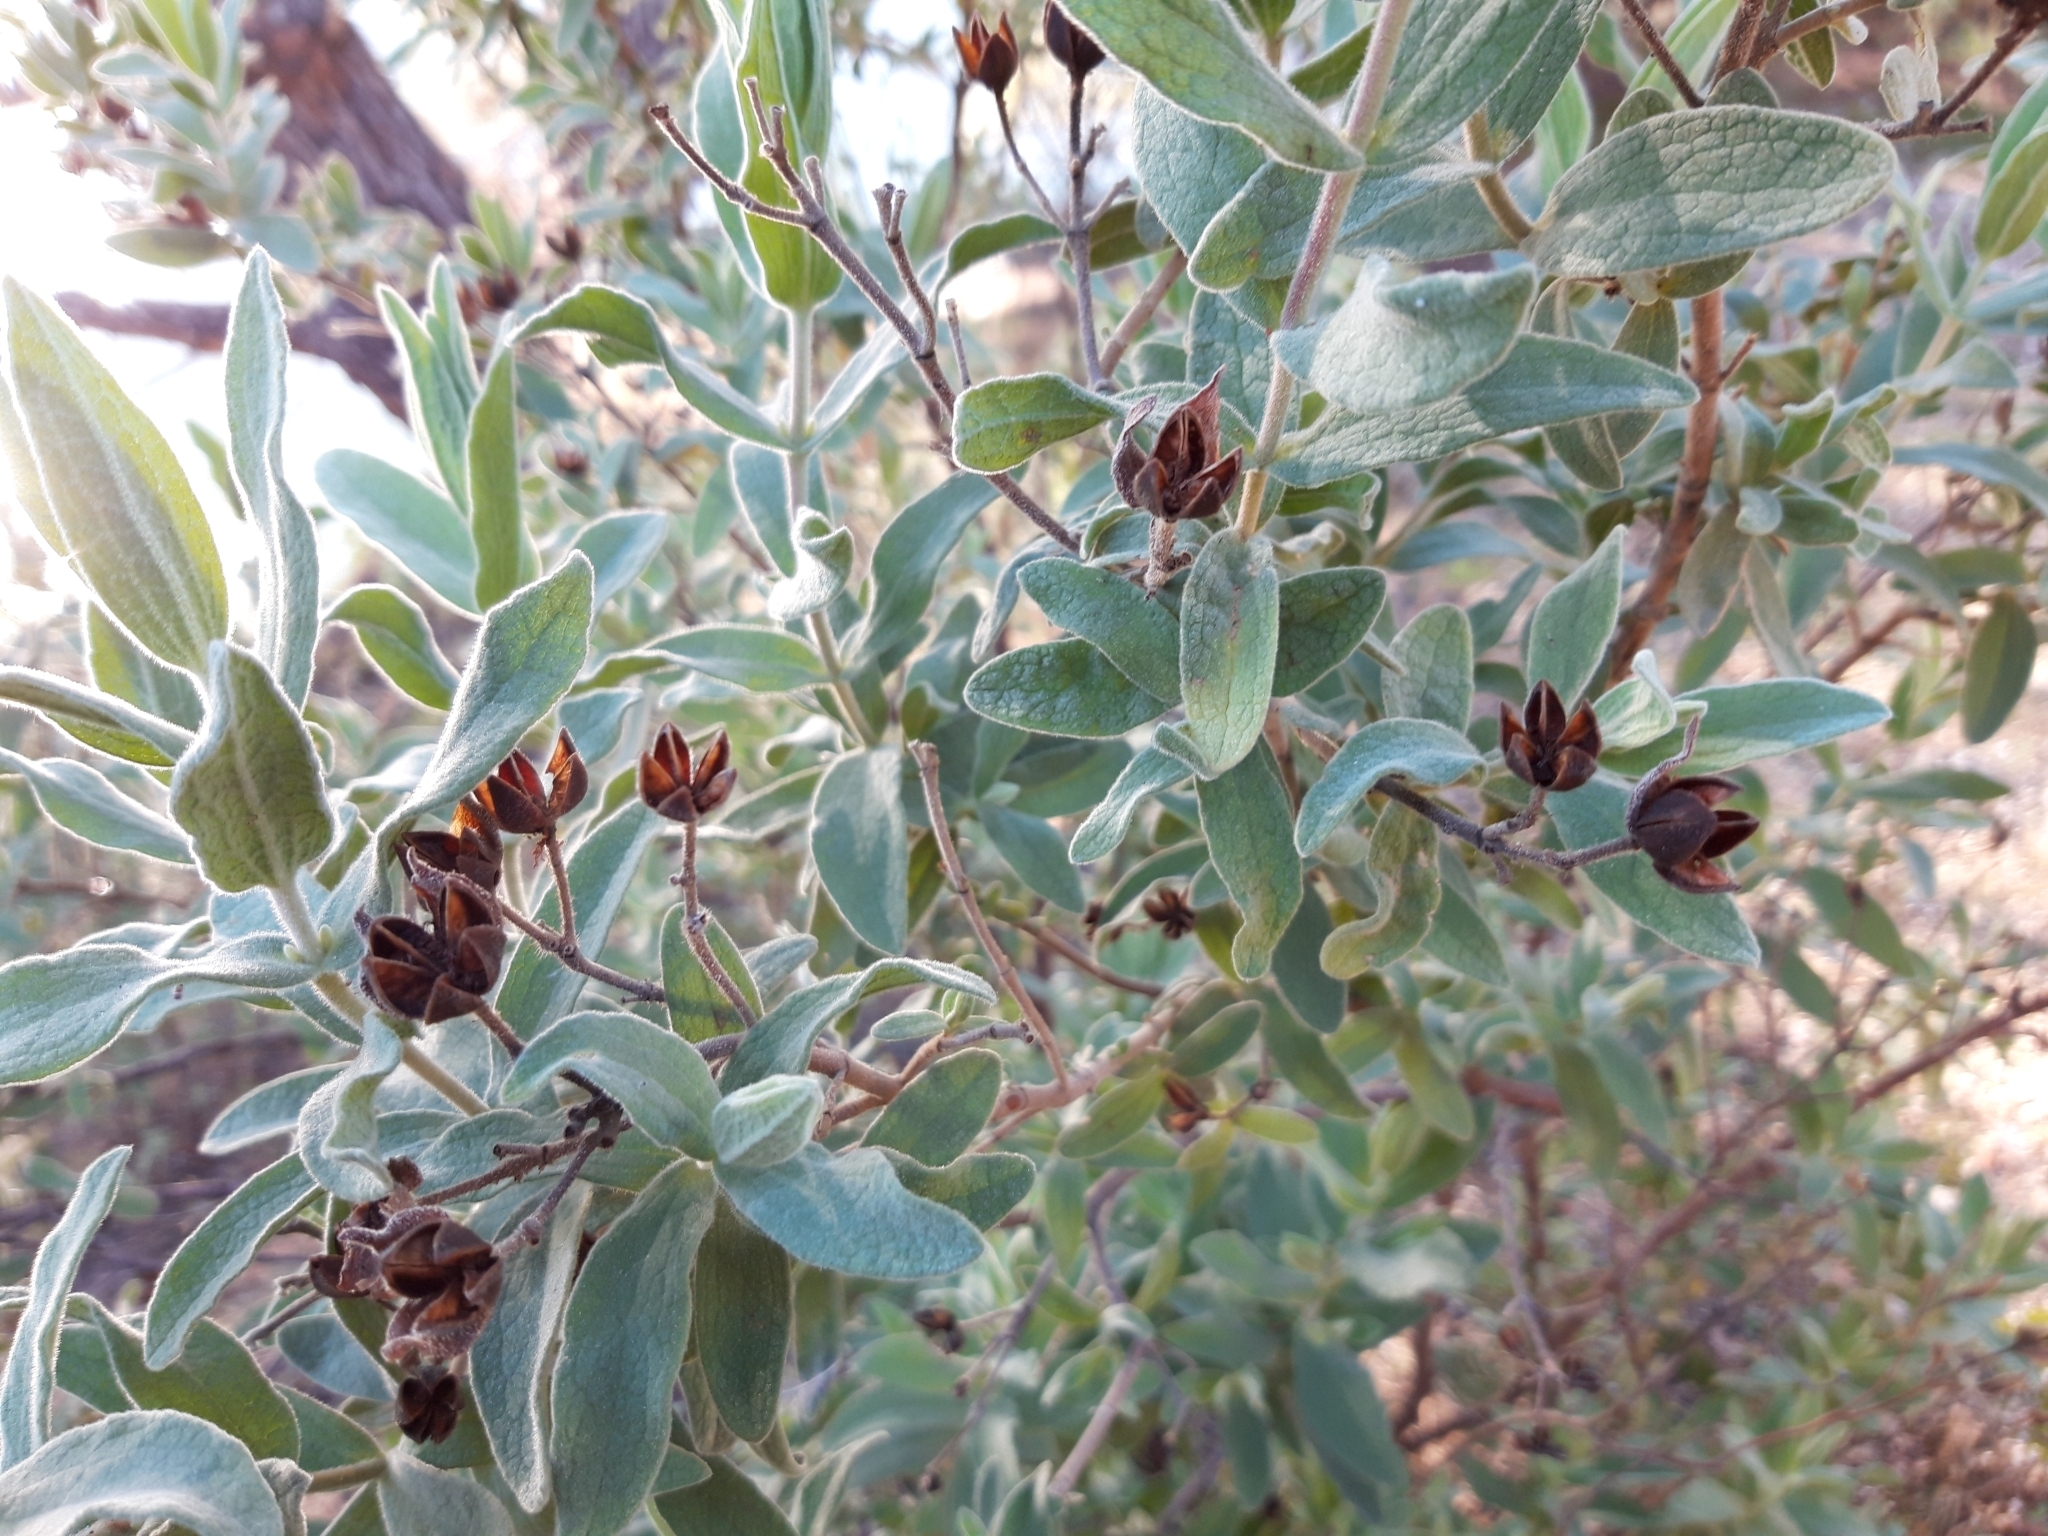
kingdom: Plantae
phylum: Tracheophyta
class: Magnoliopsida
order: Malvales
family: Cistaceae
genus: Cistus
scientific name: Cistus albidus
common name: White-leaf rock-rose
